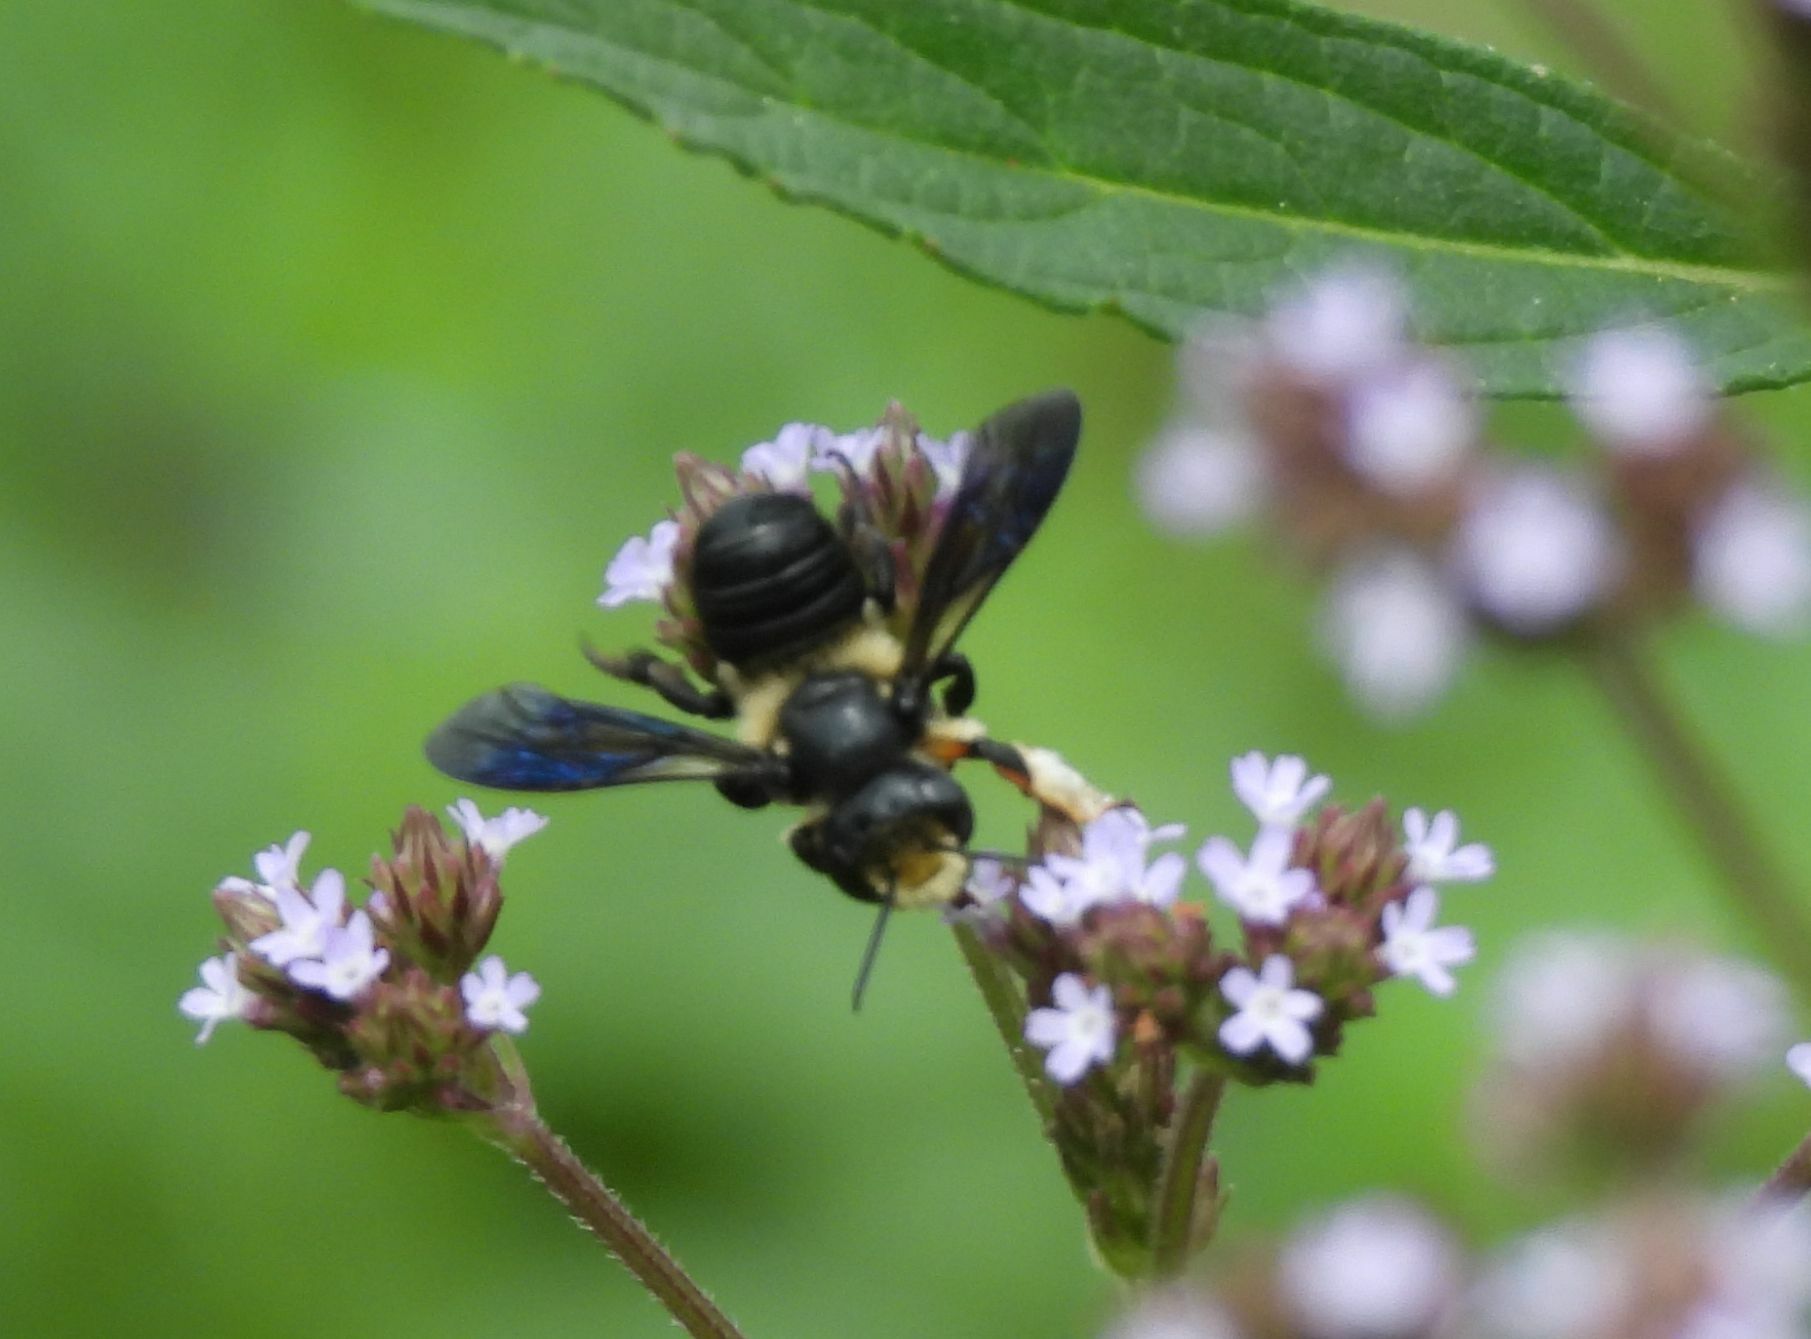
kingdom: Animalia
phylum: Arthropoda
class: Insecta
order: Hymenoptera
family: Megachilidae
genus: Megachile
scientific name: Megachile xylocopoides
